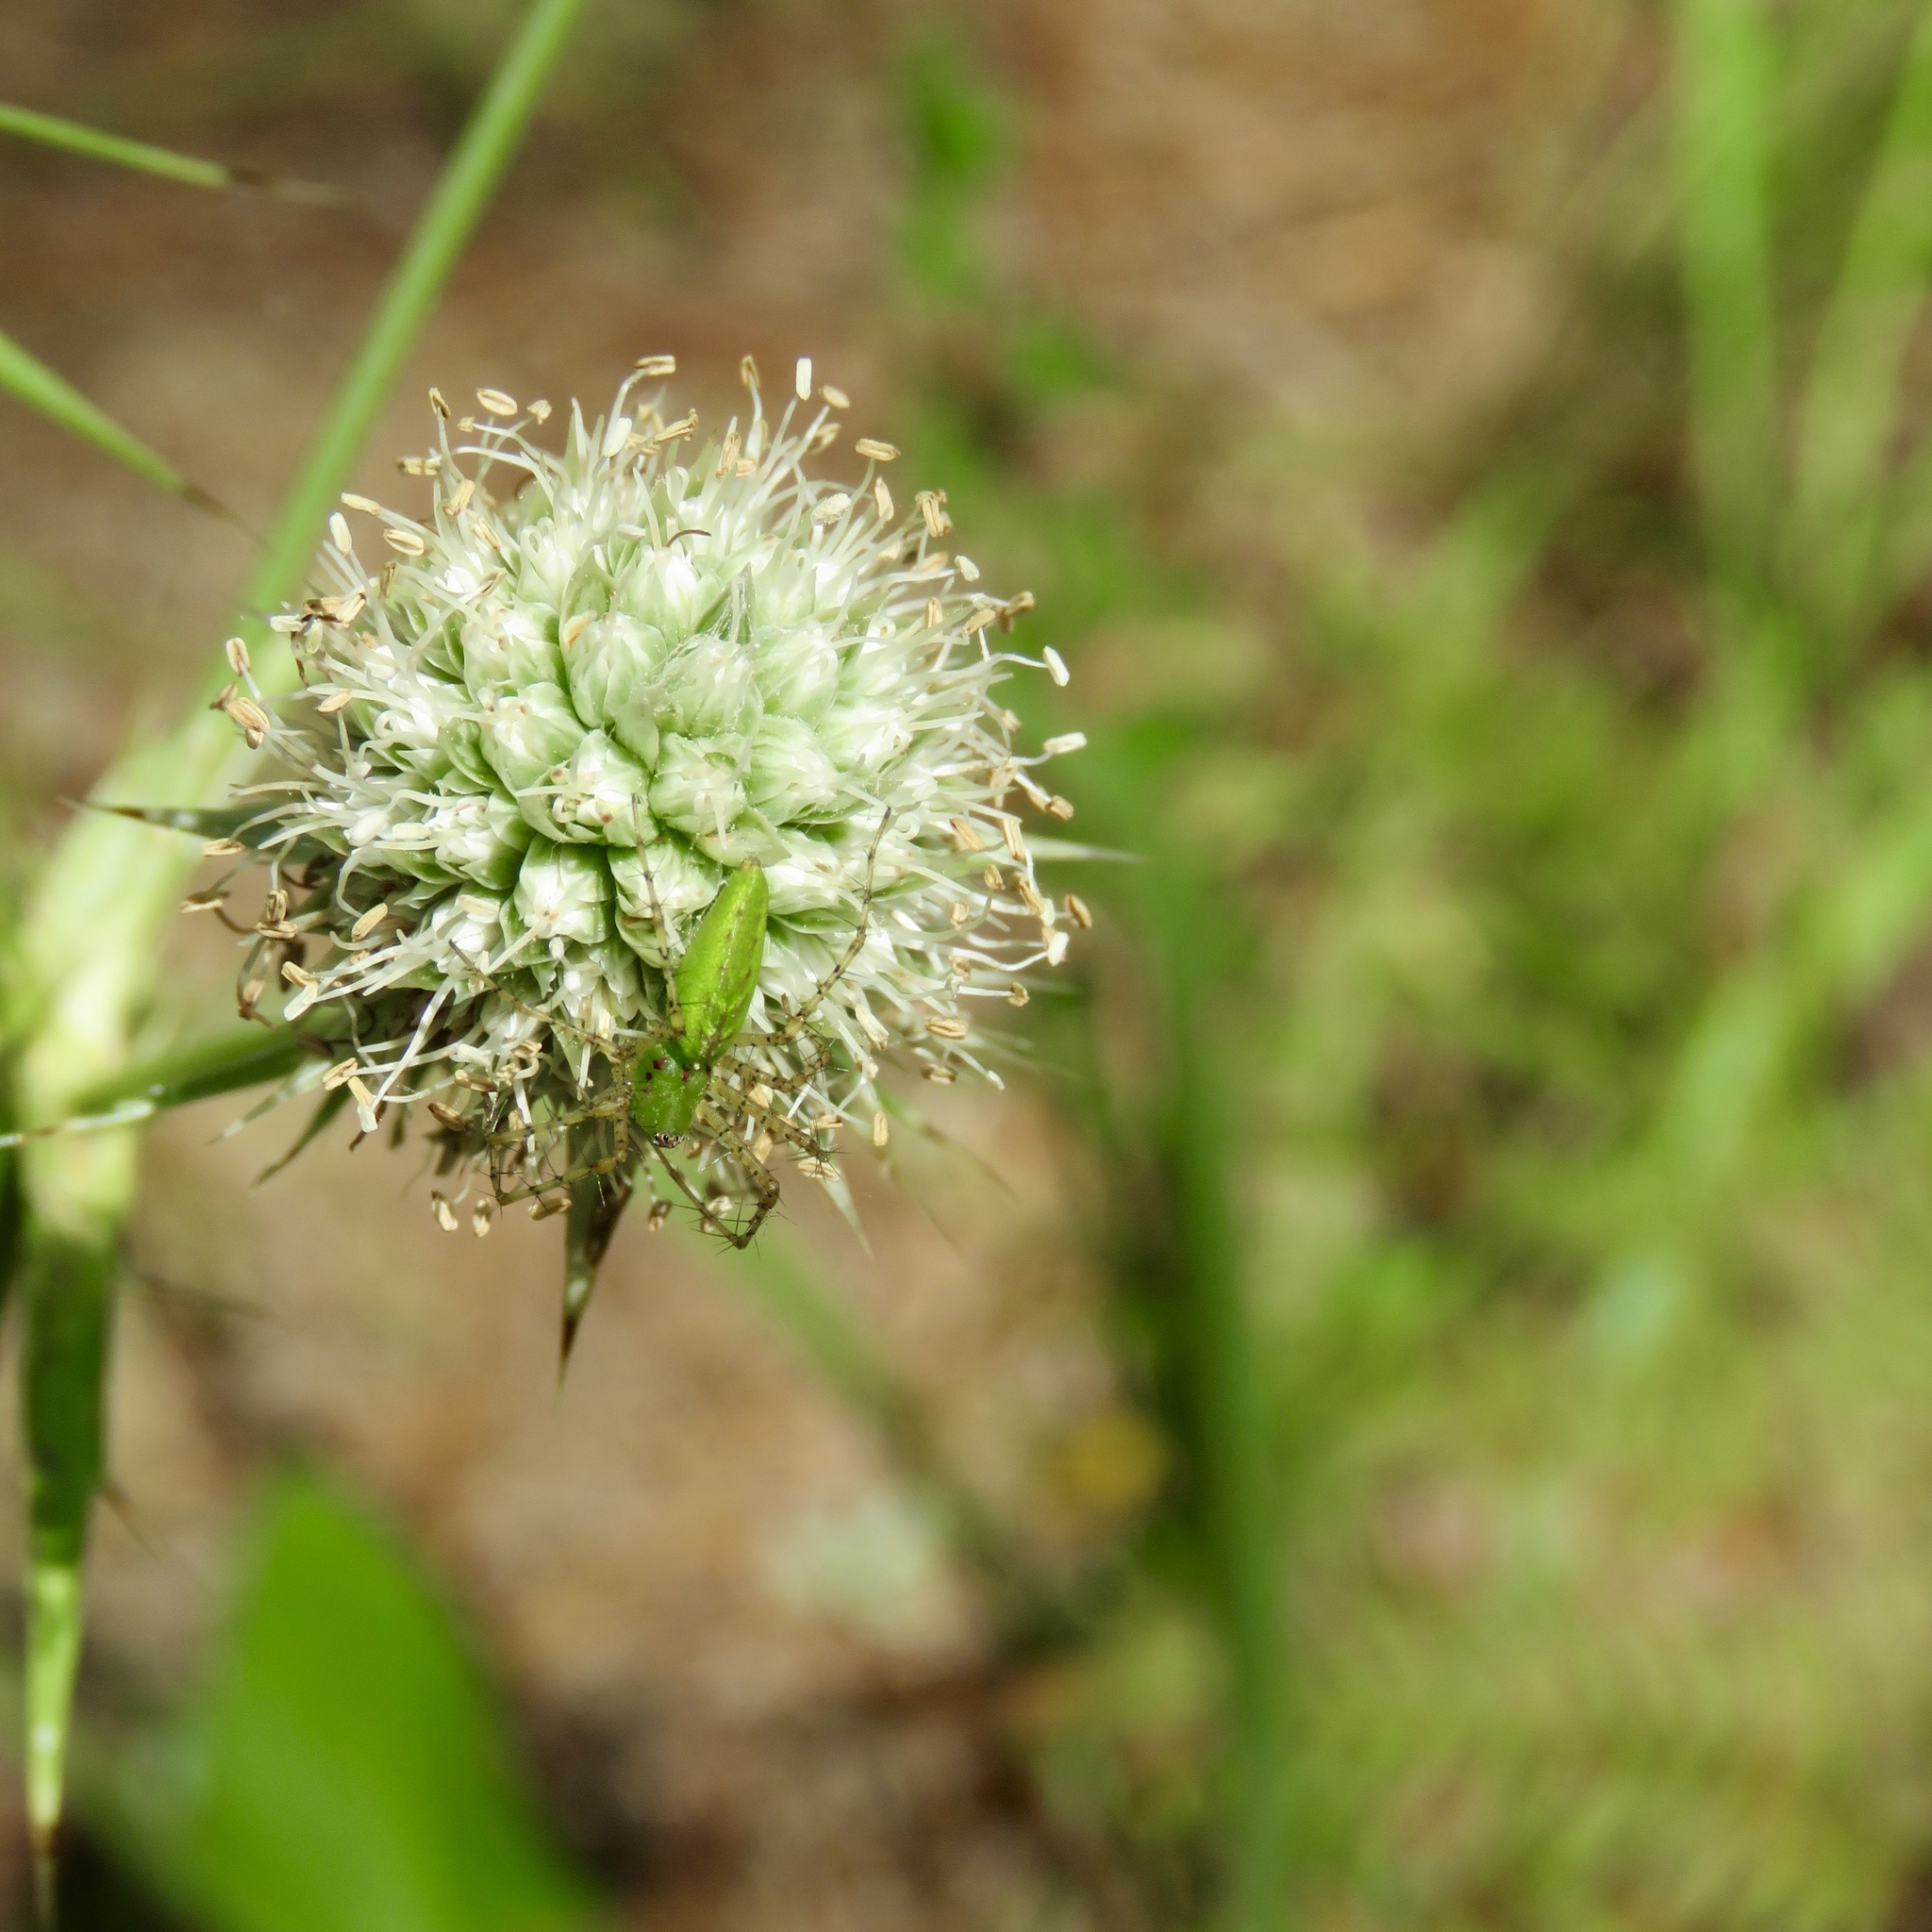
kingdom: Animalia
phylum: Arthropoda
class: Arachnida
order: Araneae
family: Oxyopidae
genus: Peucetia
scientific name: Peucetia viridans
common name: Lynx spiders
